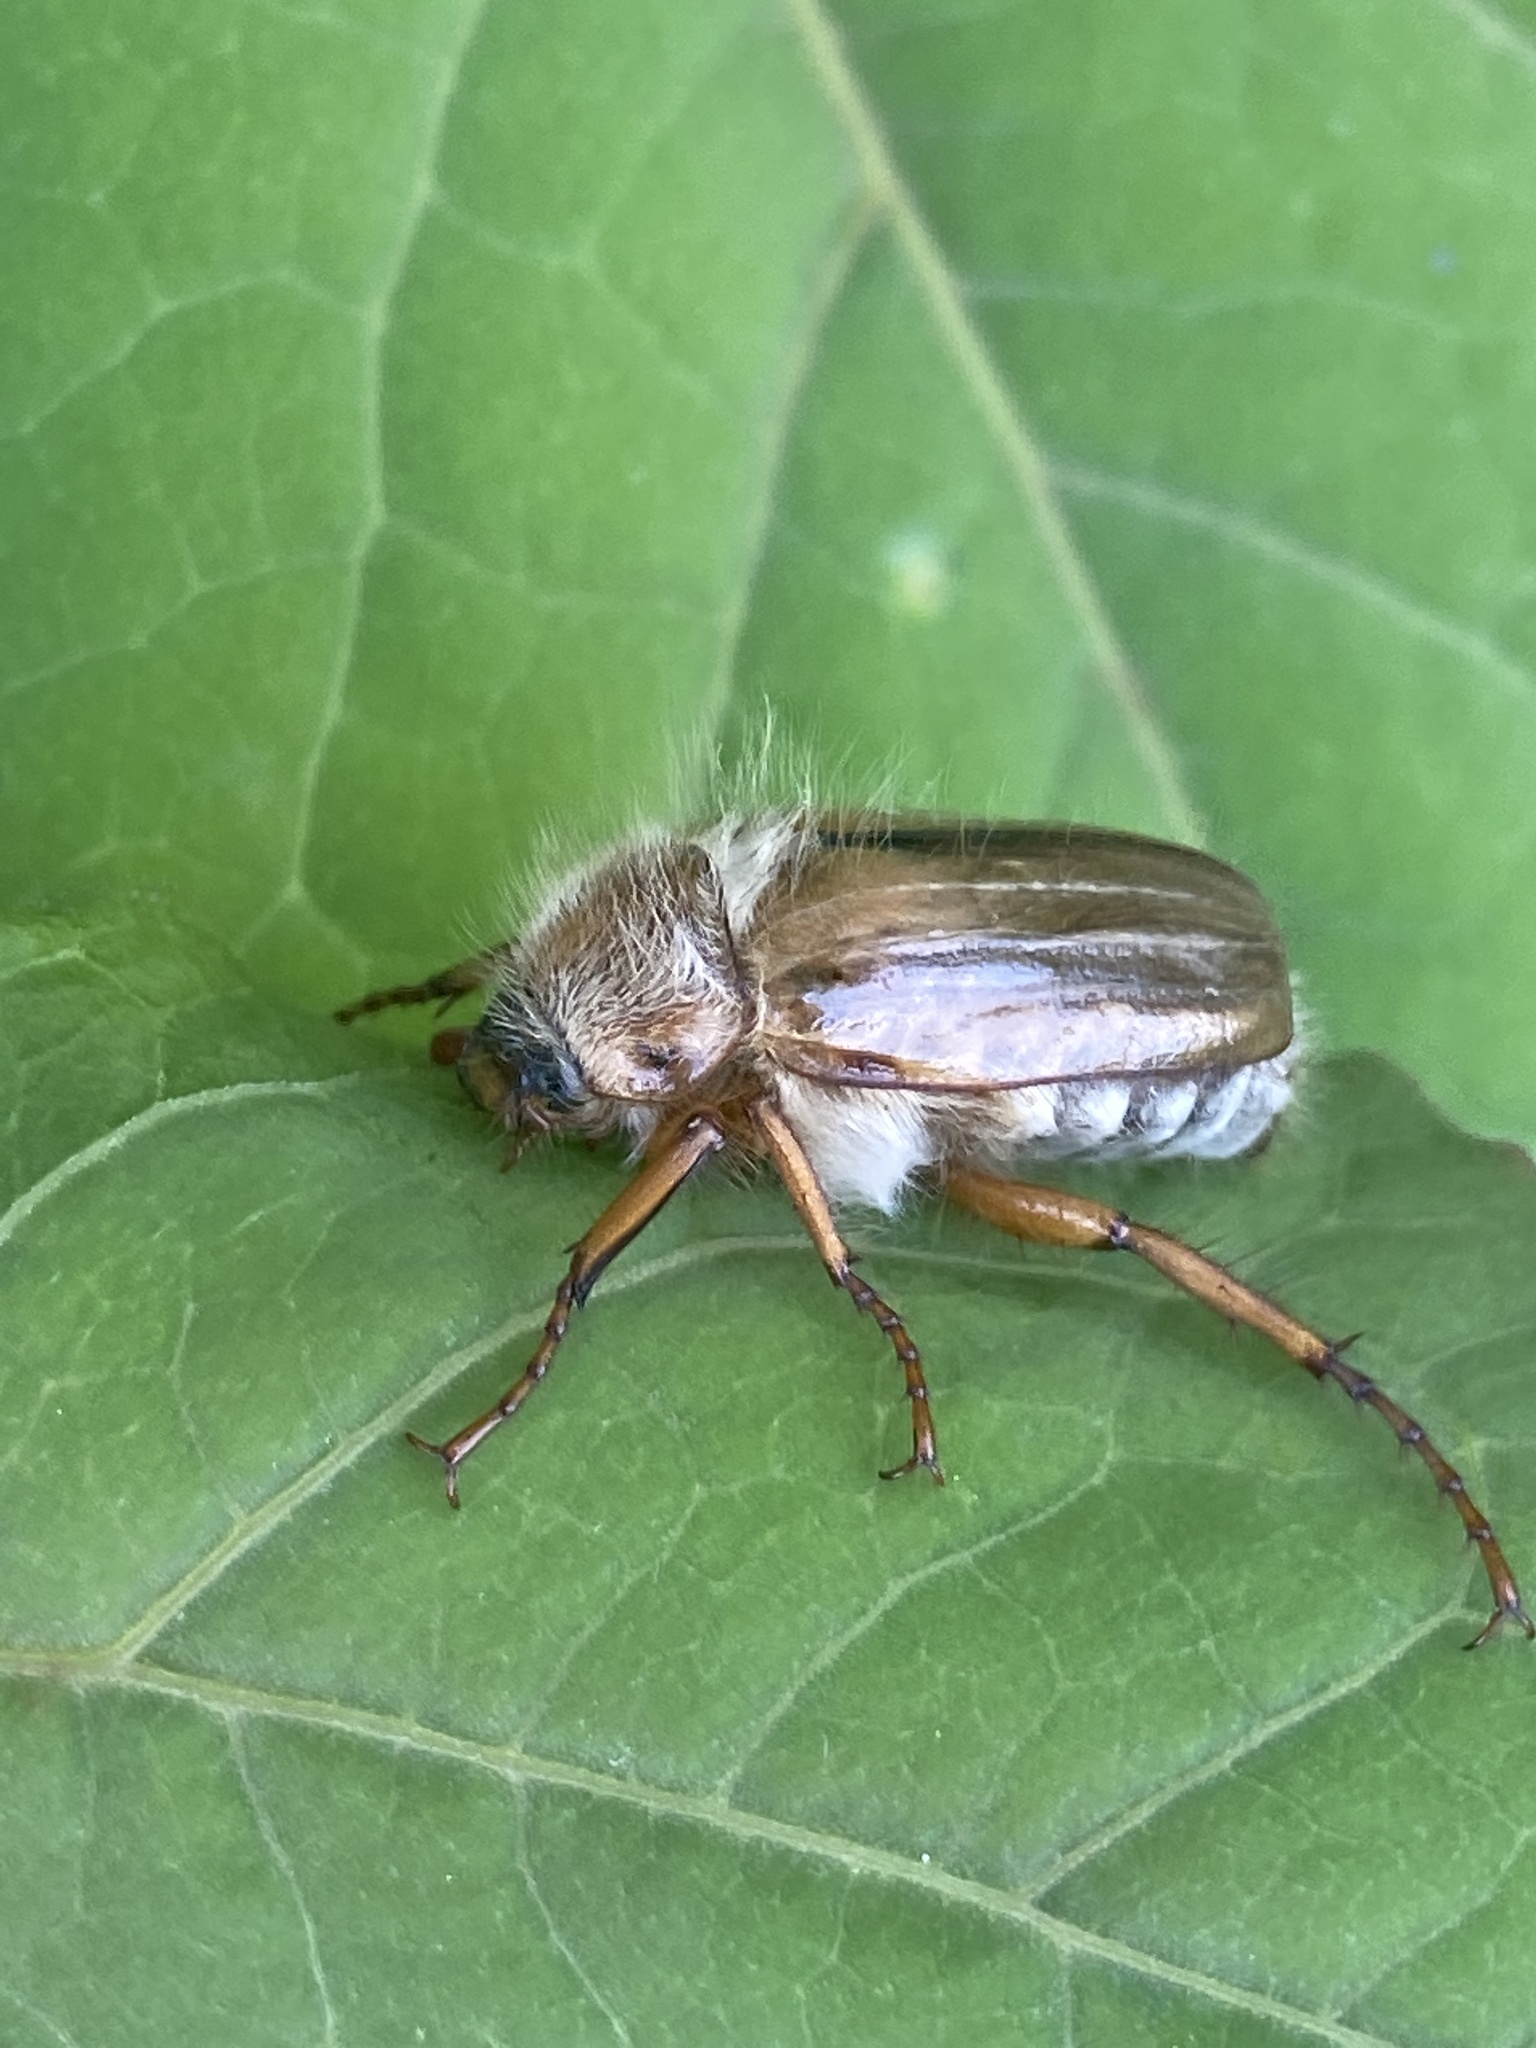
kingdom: Animalia
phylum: Arthropoda
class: Insecta
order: Coleoptera
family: Scarabaeidae
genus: Amphimallon
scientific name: Amphimallon solstitiale
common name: Summer chafer
